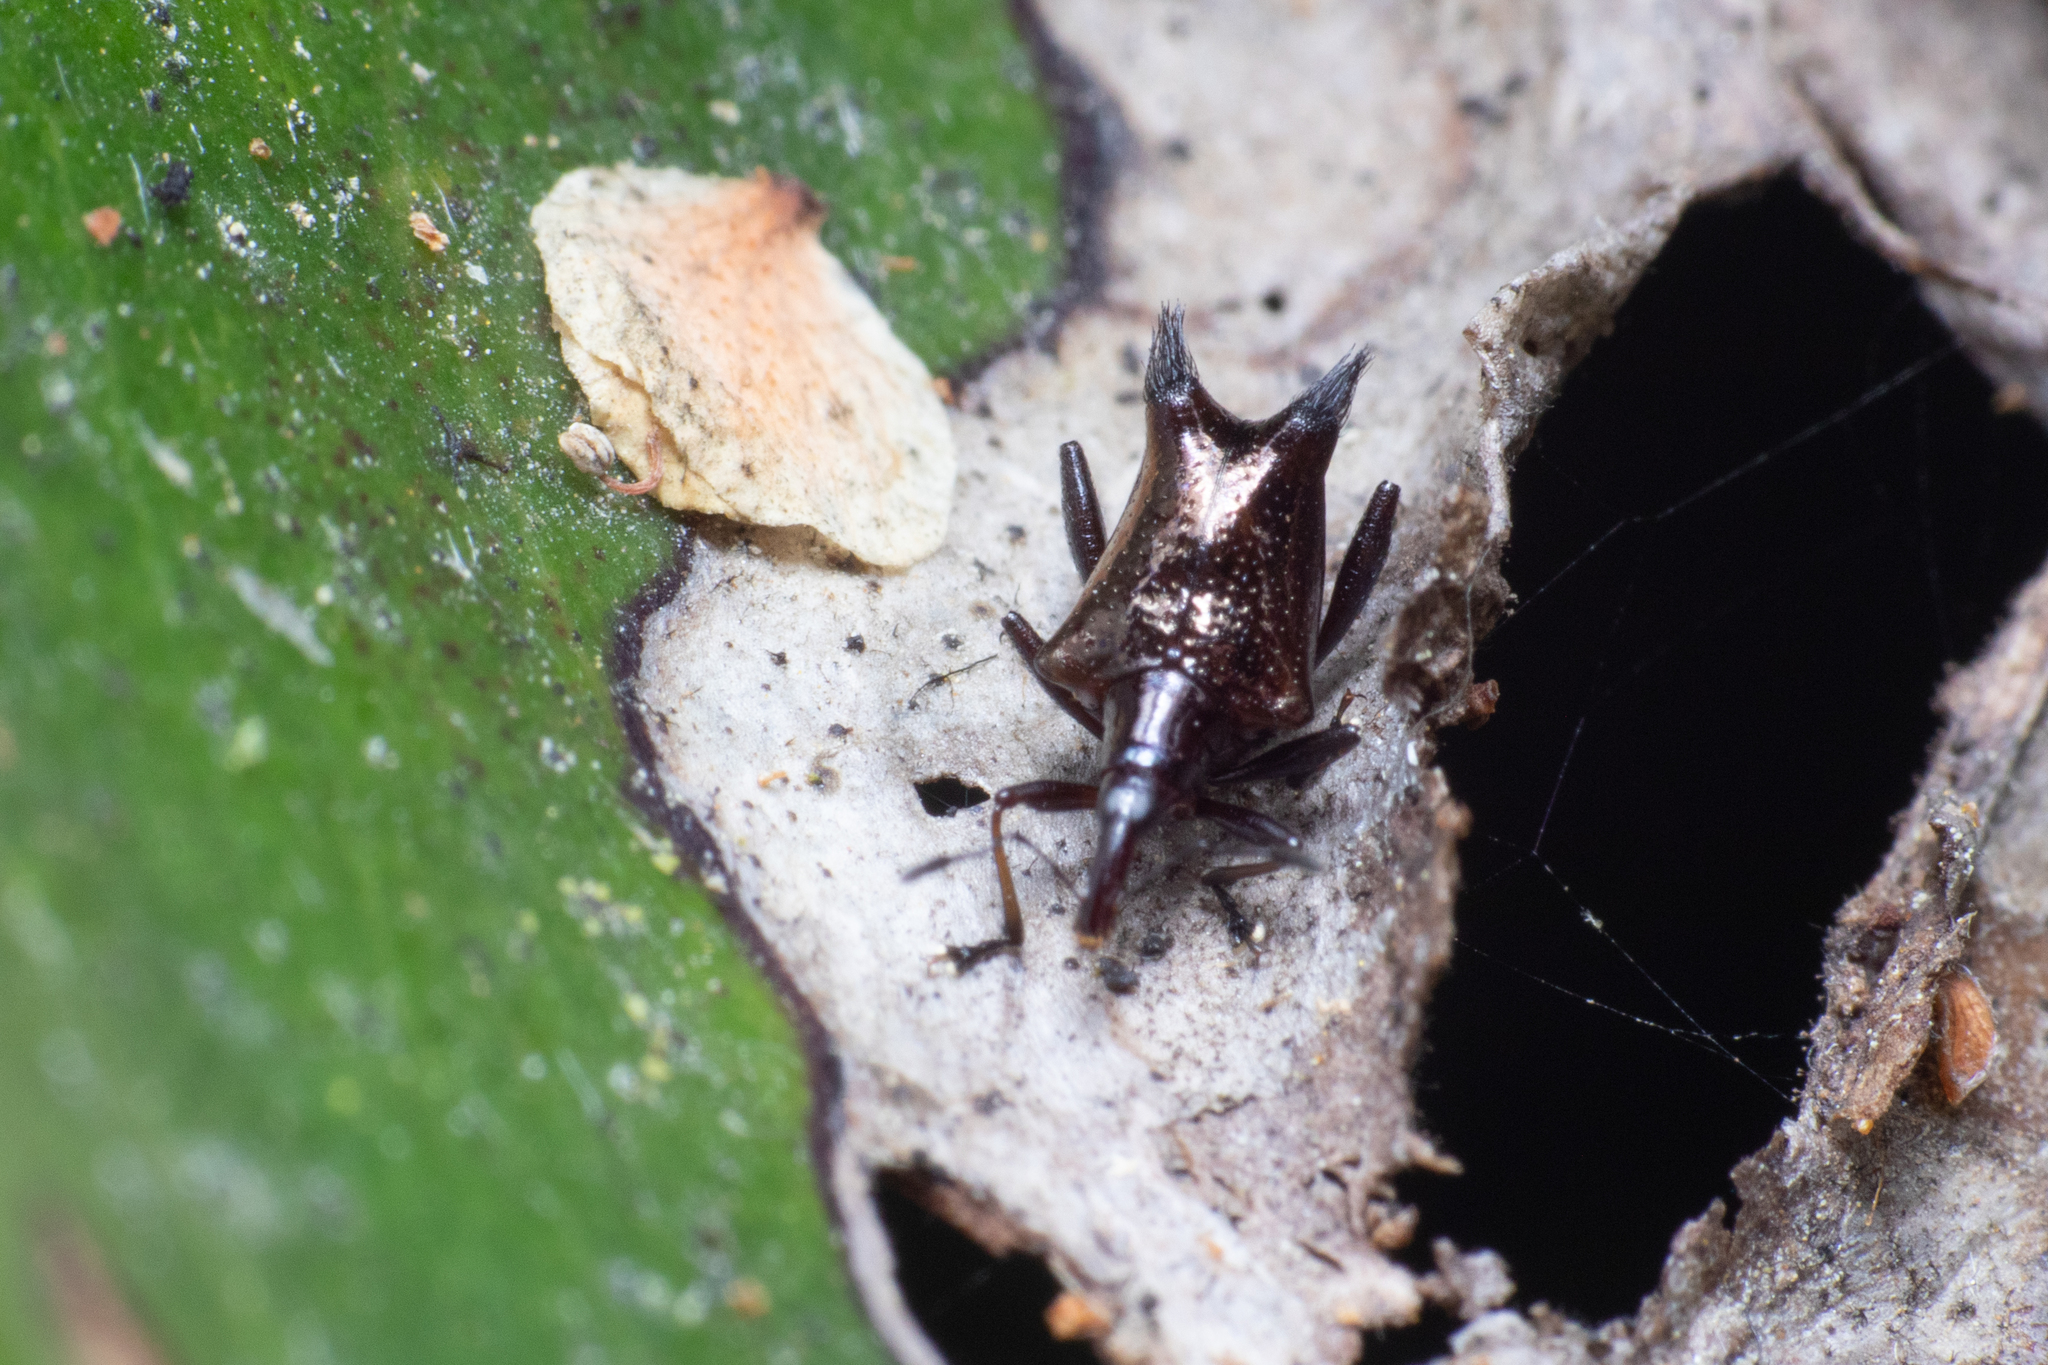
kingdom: Animalia
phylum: Arthropoda
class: Insecta
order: Coleoptera
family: Curculionidae
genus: Scolopterus
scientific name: Scolopterus penicillatus
